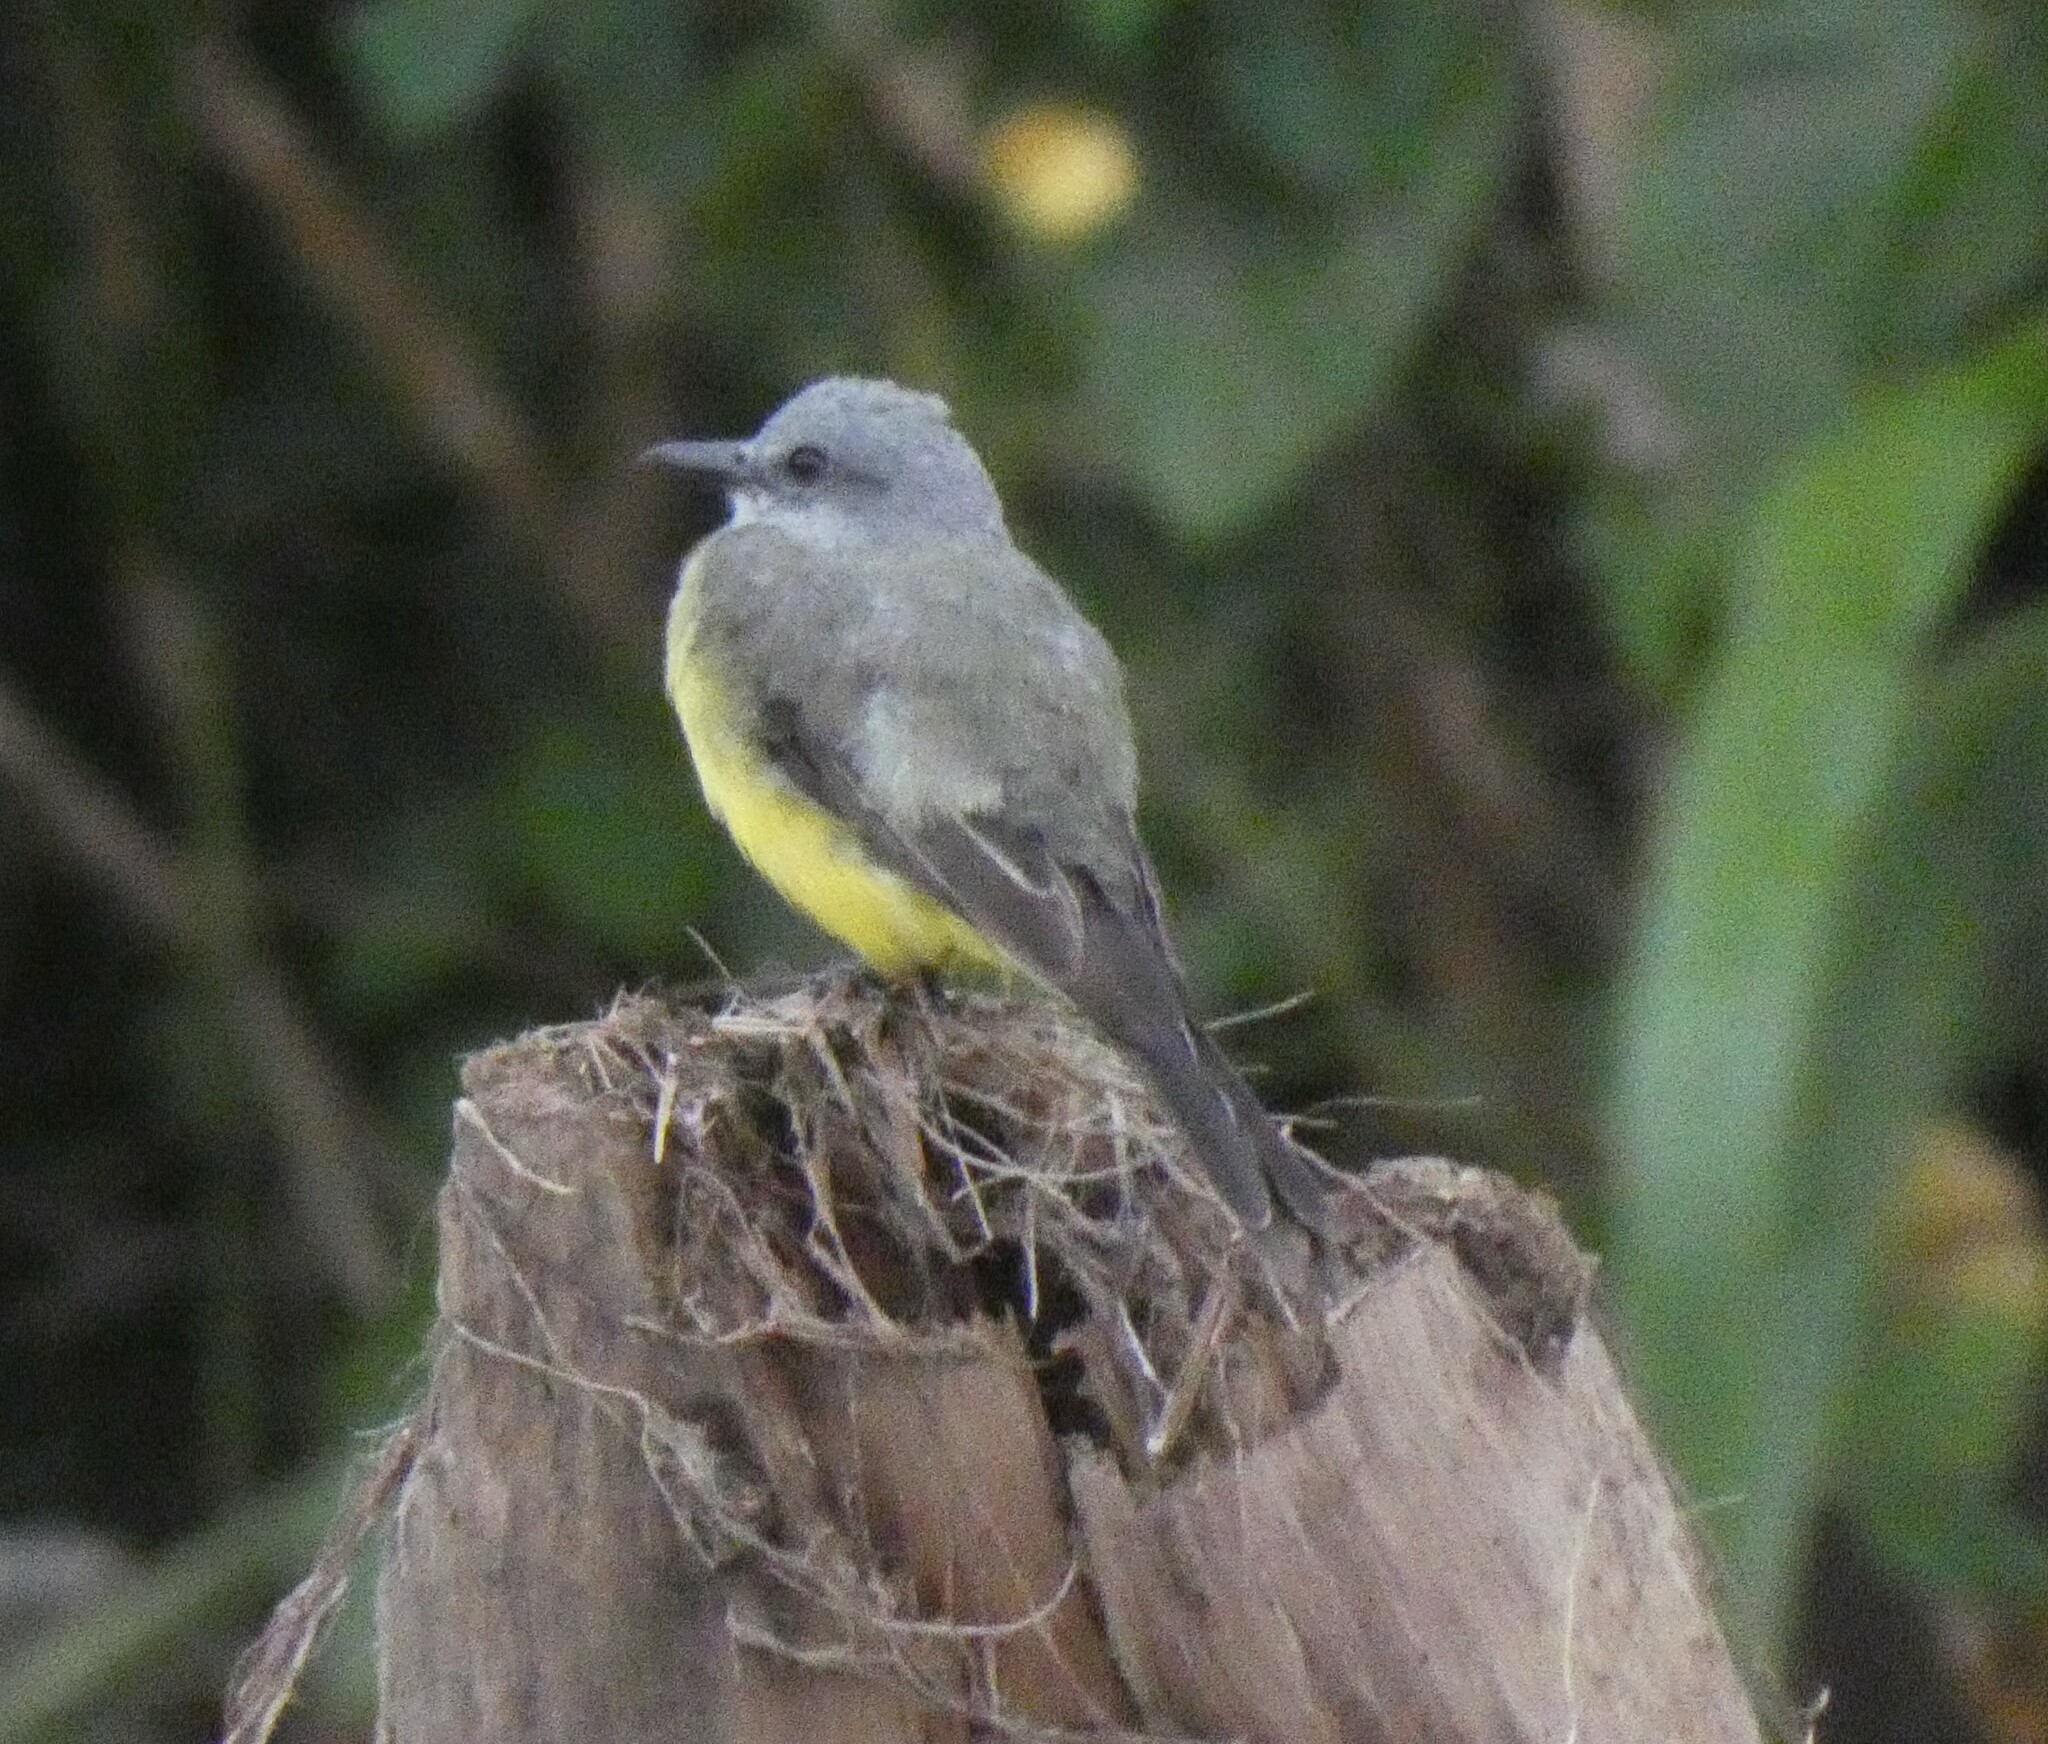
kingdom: Animalia
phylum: Chordata
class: Aves
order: Passeriformes
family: Tyrannidae
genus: Tyrannus
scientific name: Tyrannus melancholicus
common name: Tropical kingbird
